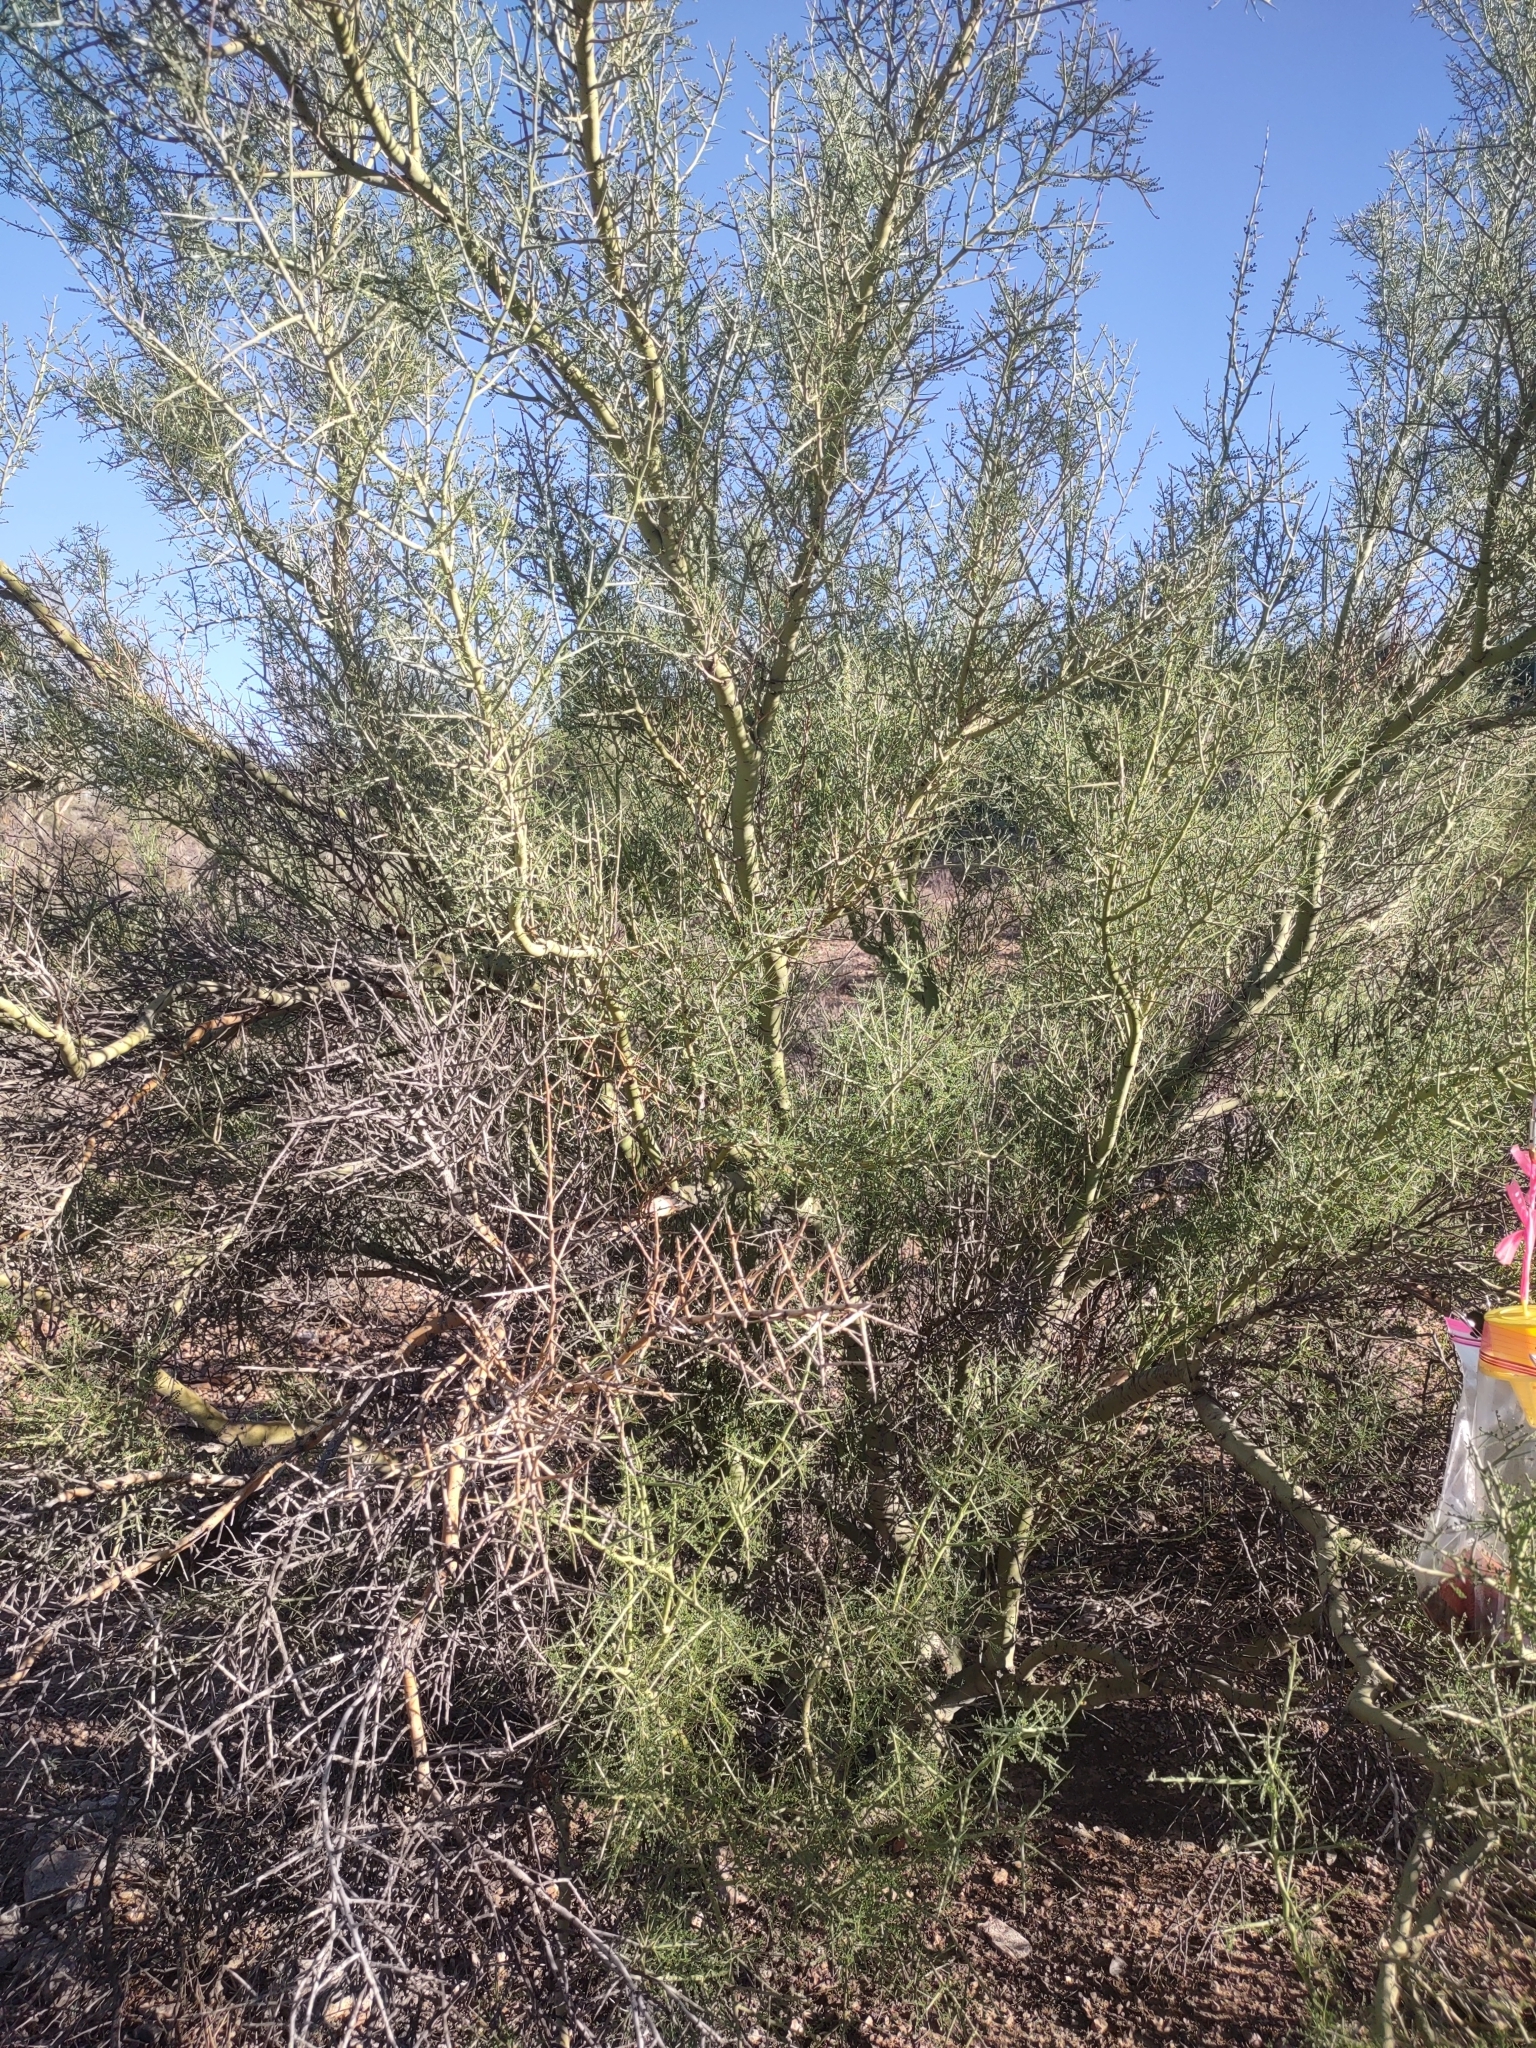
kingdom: Plantae
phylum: Tracheophyta
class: Magnoliopsida
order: Fabales
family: Fabaceae
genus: Parkinsonia
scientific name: Parkinsonia microphylla
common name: Yellow paloverde
